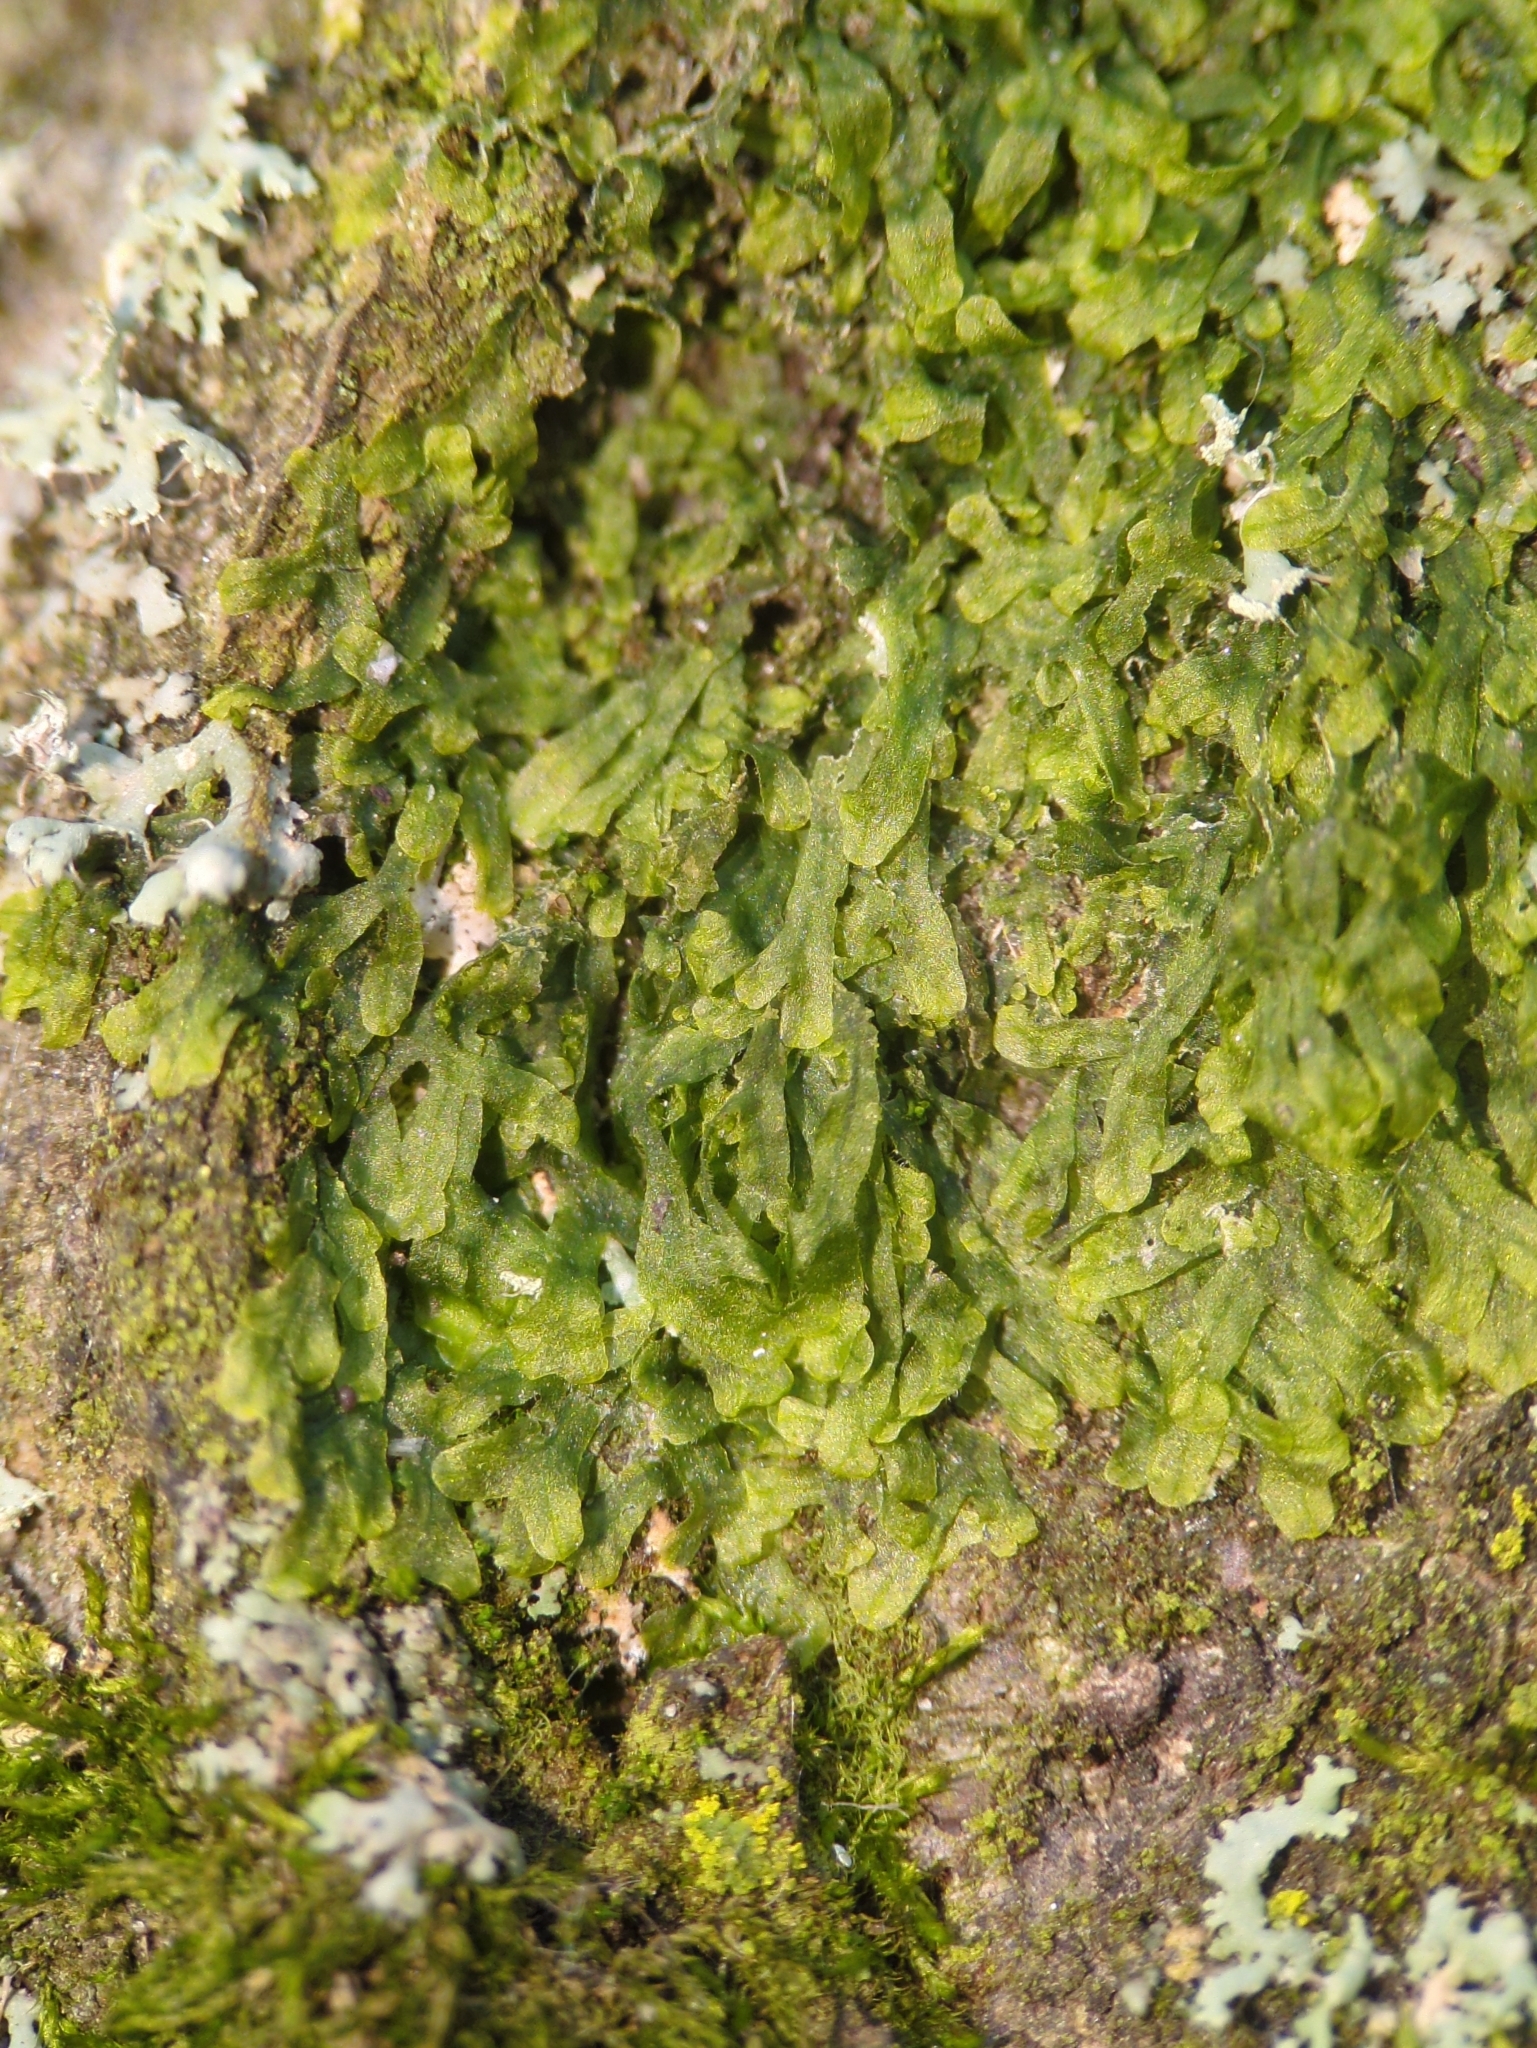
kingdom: Plantae
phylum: Marchantiophyta
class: Jungermanniopsida
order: Metzgeriales
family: Metzgeriaceae
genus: Metzgeria
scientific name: Metzgeria furcata
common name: Forked veilwort
